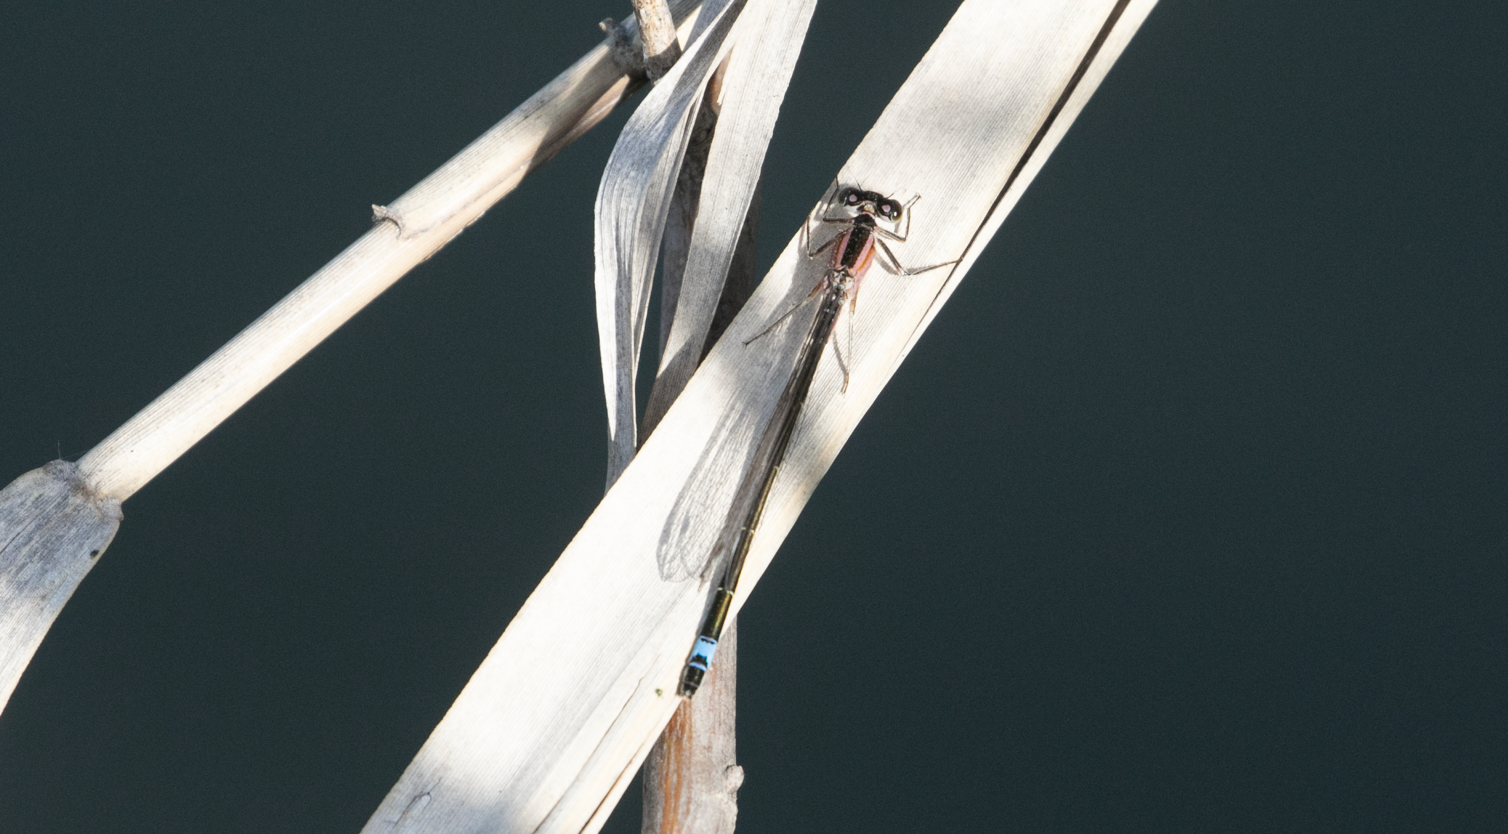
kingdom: Animalia
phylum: Arthropoda
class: Insecta
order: Odonata
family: Coenagrionidae
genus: Ischnura
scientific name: Ischnura elegans
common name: Blue-tailed damselfly
